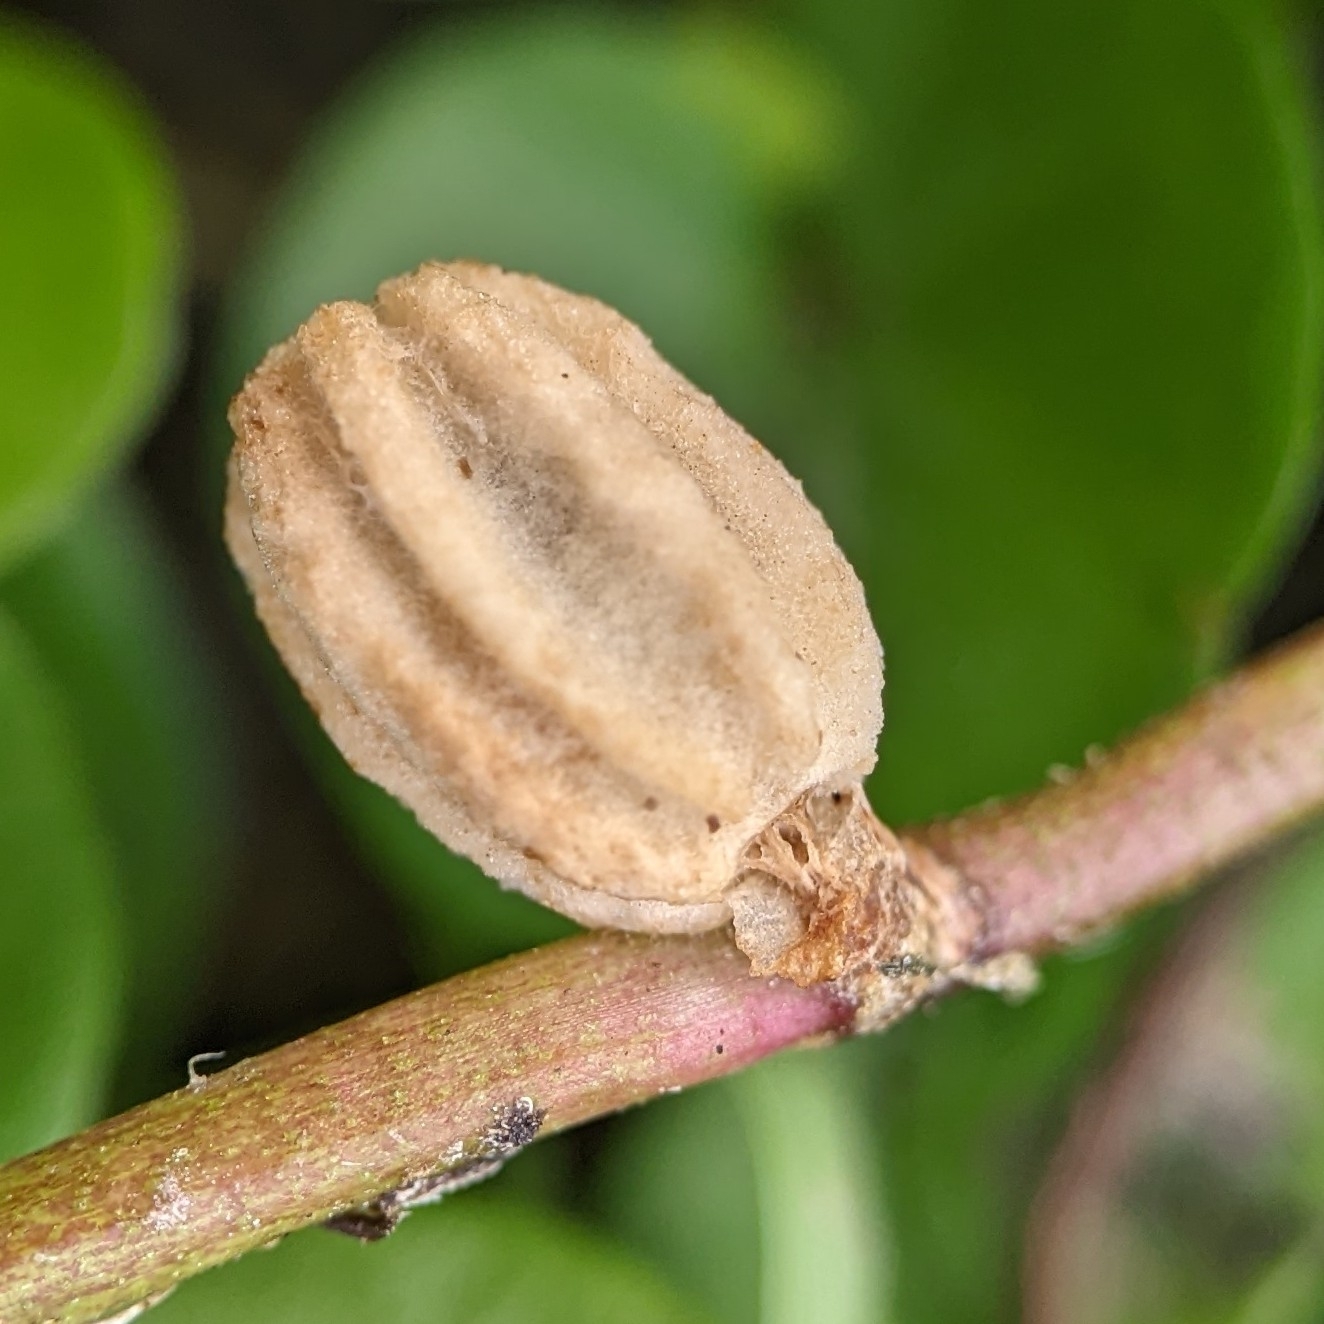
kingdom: Plantae
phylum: Tracheophyta
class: Magnoliopsida
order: Gentianales
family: Rubiaceae
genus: Diodia
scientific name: Diodia virginiana
